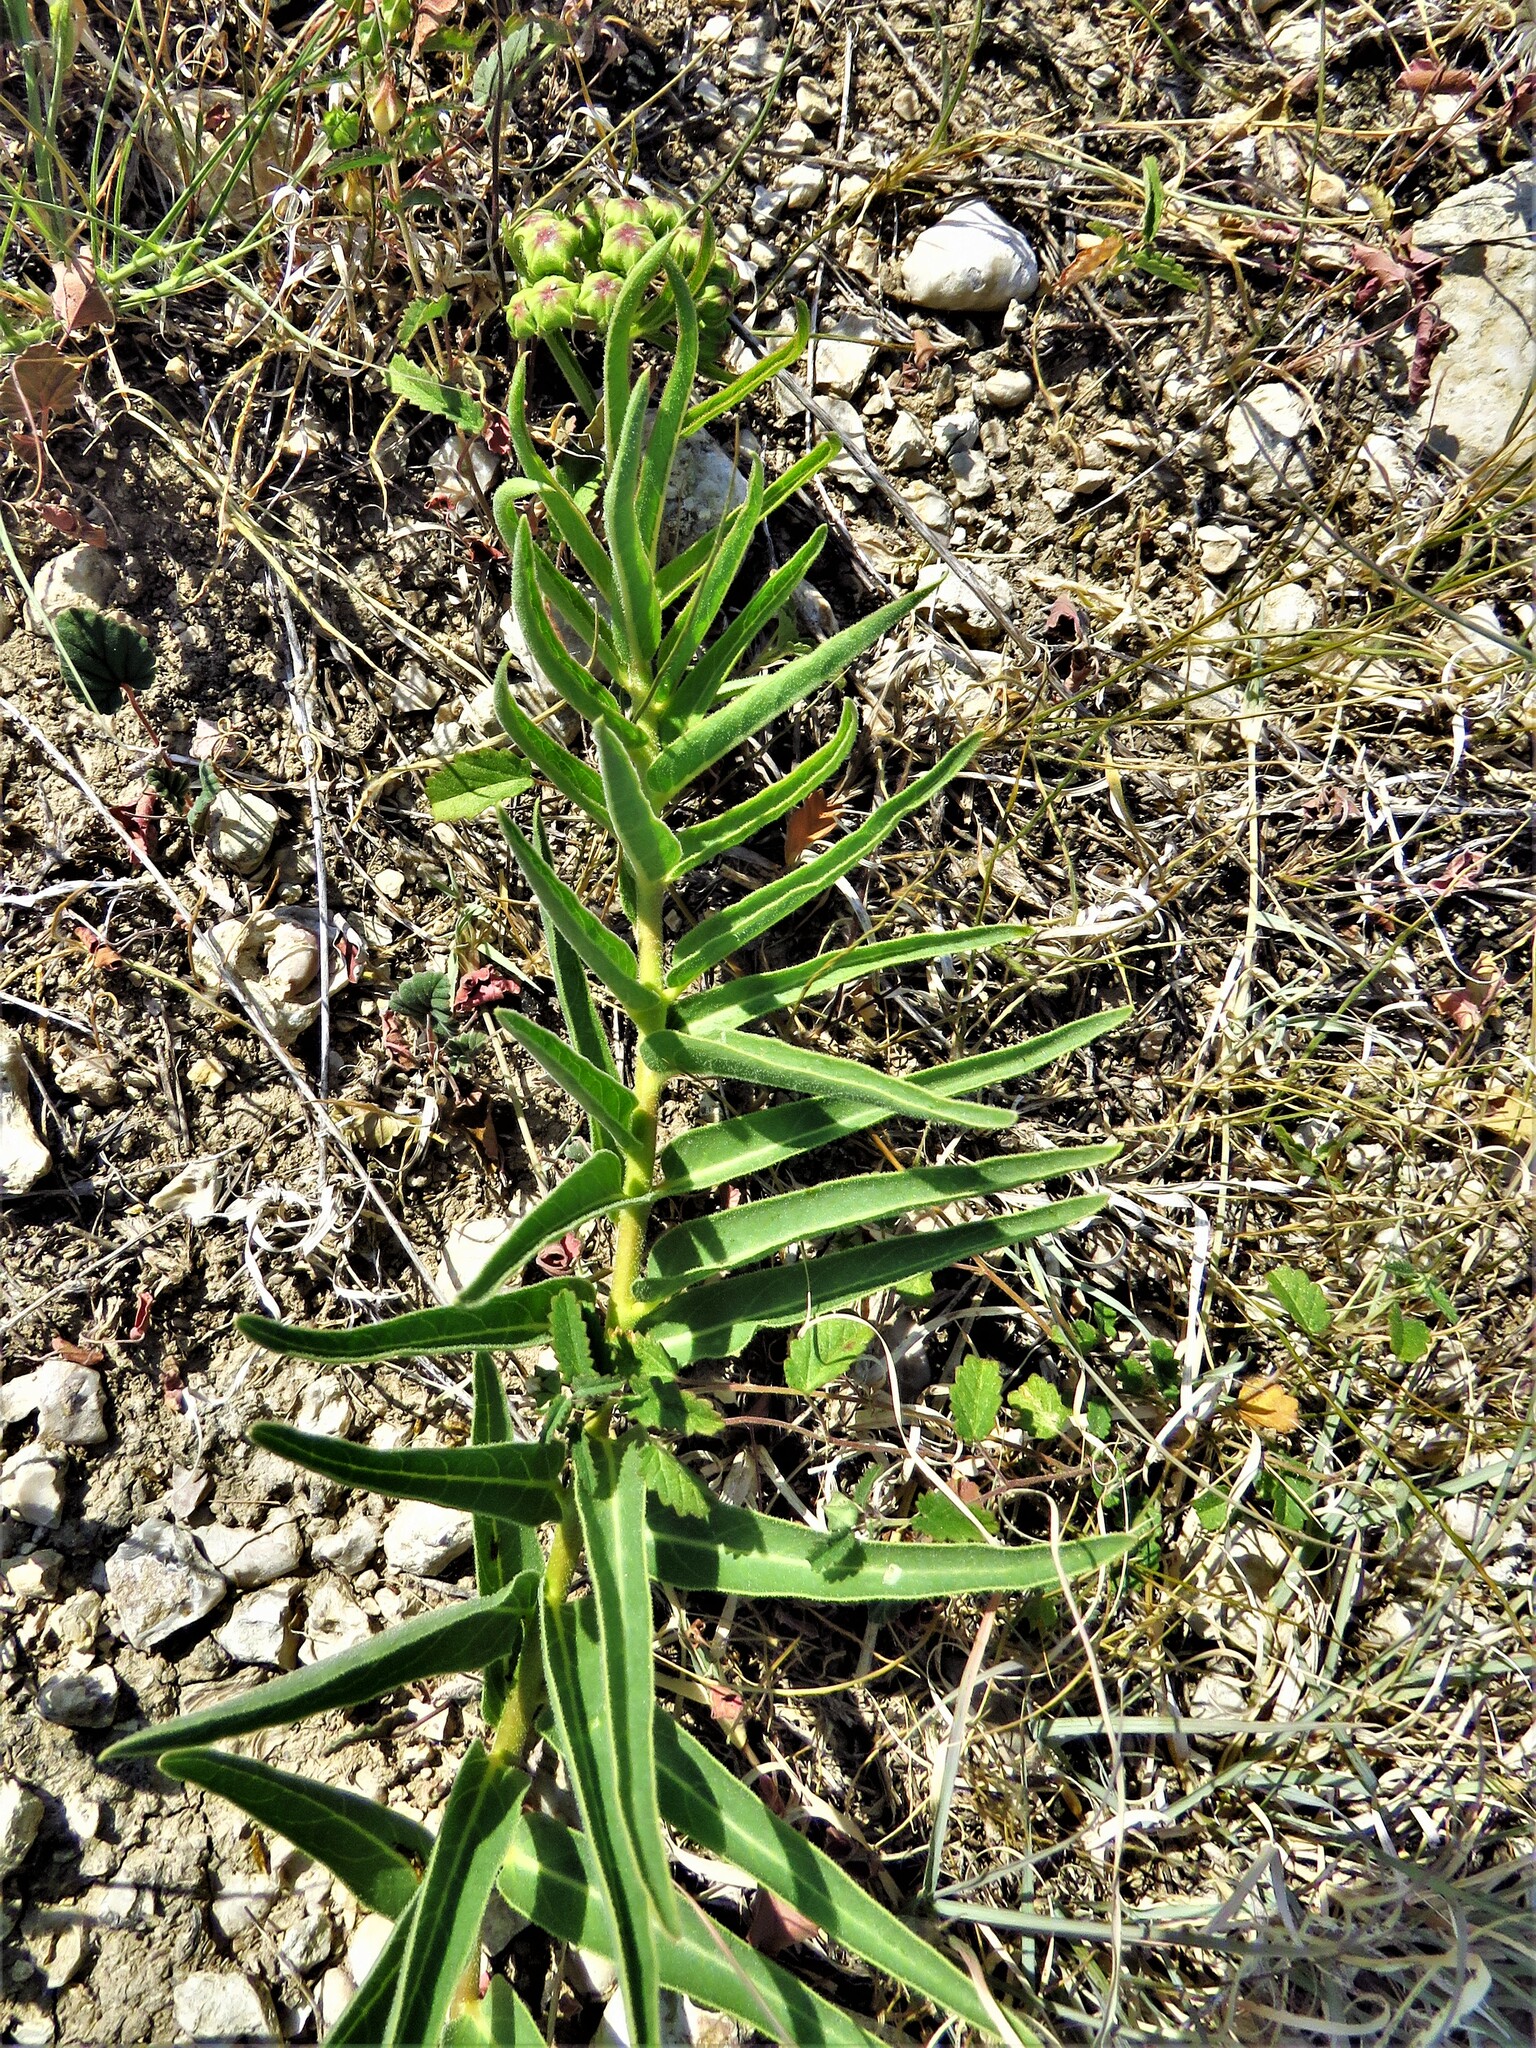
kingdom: Plantae
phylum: Tracheophyta
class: Magnoliopsida
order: Gentianales
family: Apocynaceae
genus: Asclepias
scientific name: Asclepias asperula
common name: Antelope horns
